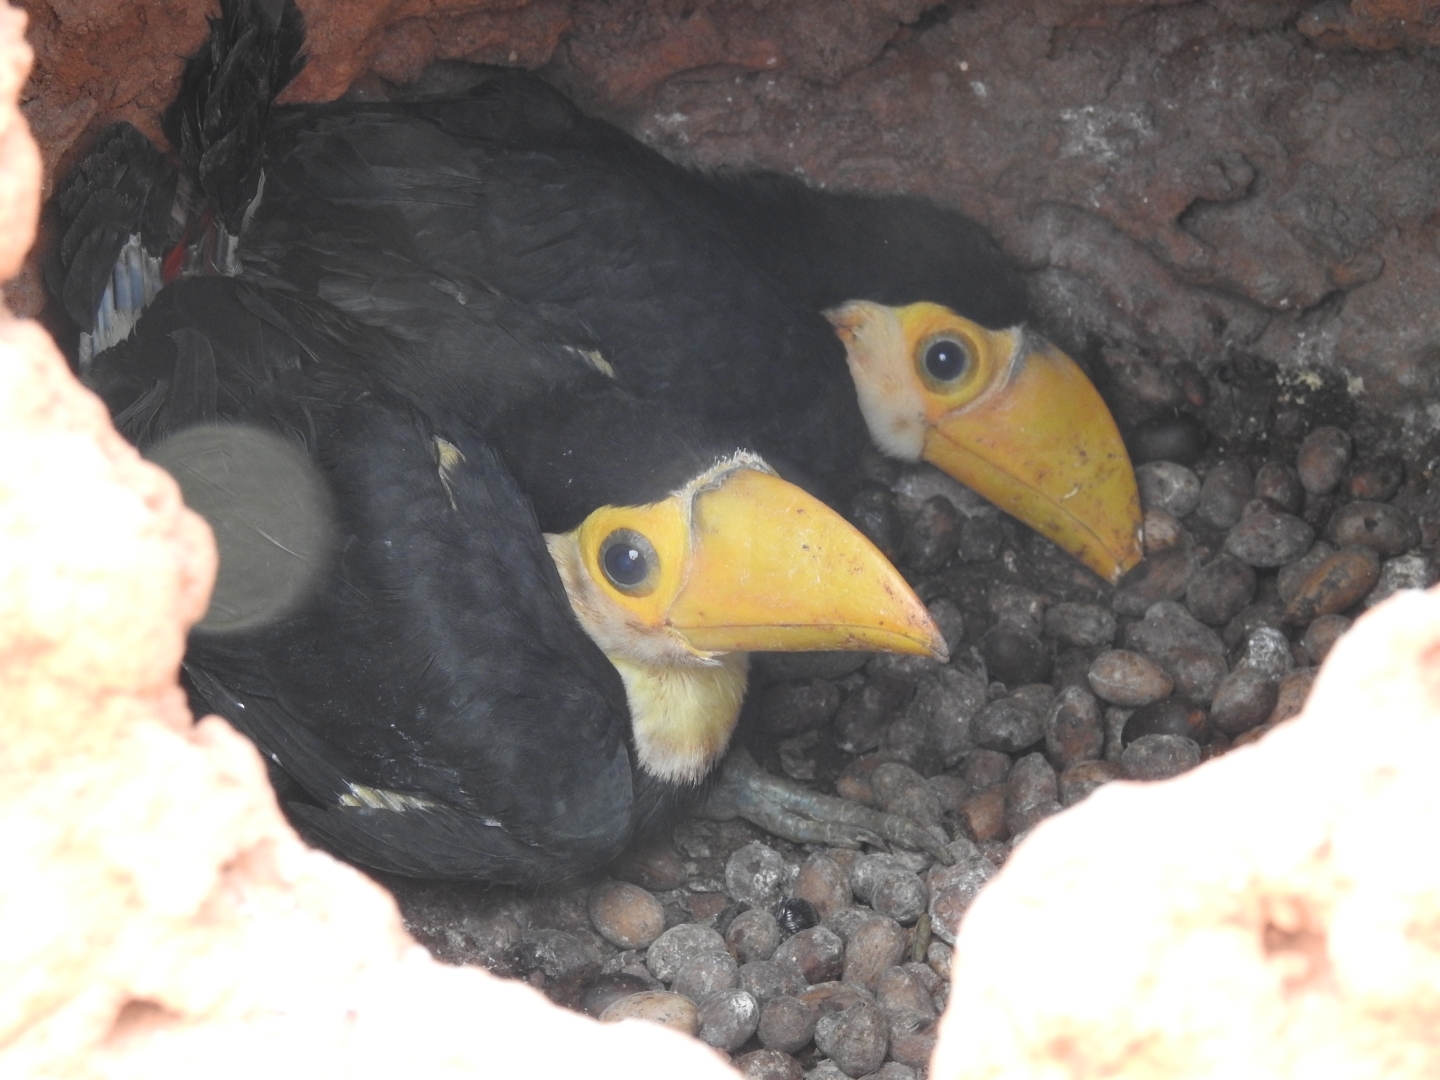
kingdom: Animalia
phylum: Chordata
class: Aves
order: Piciformes
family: Ramphastidae
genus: Ramphastos
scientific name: Ramphastos toco
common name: Toco toucan
